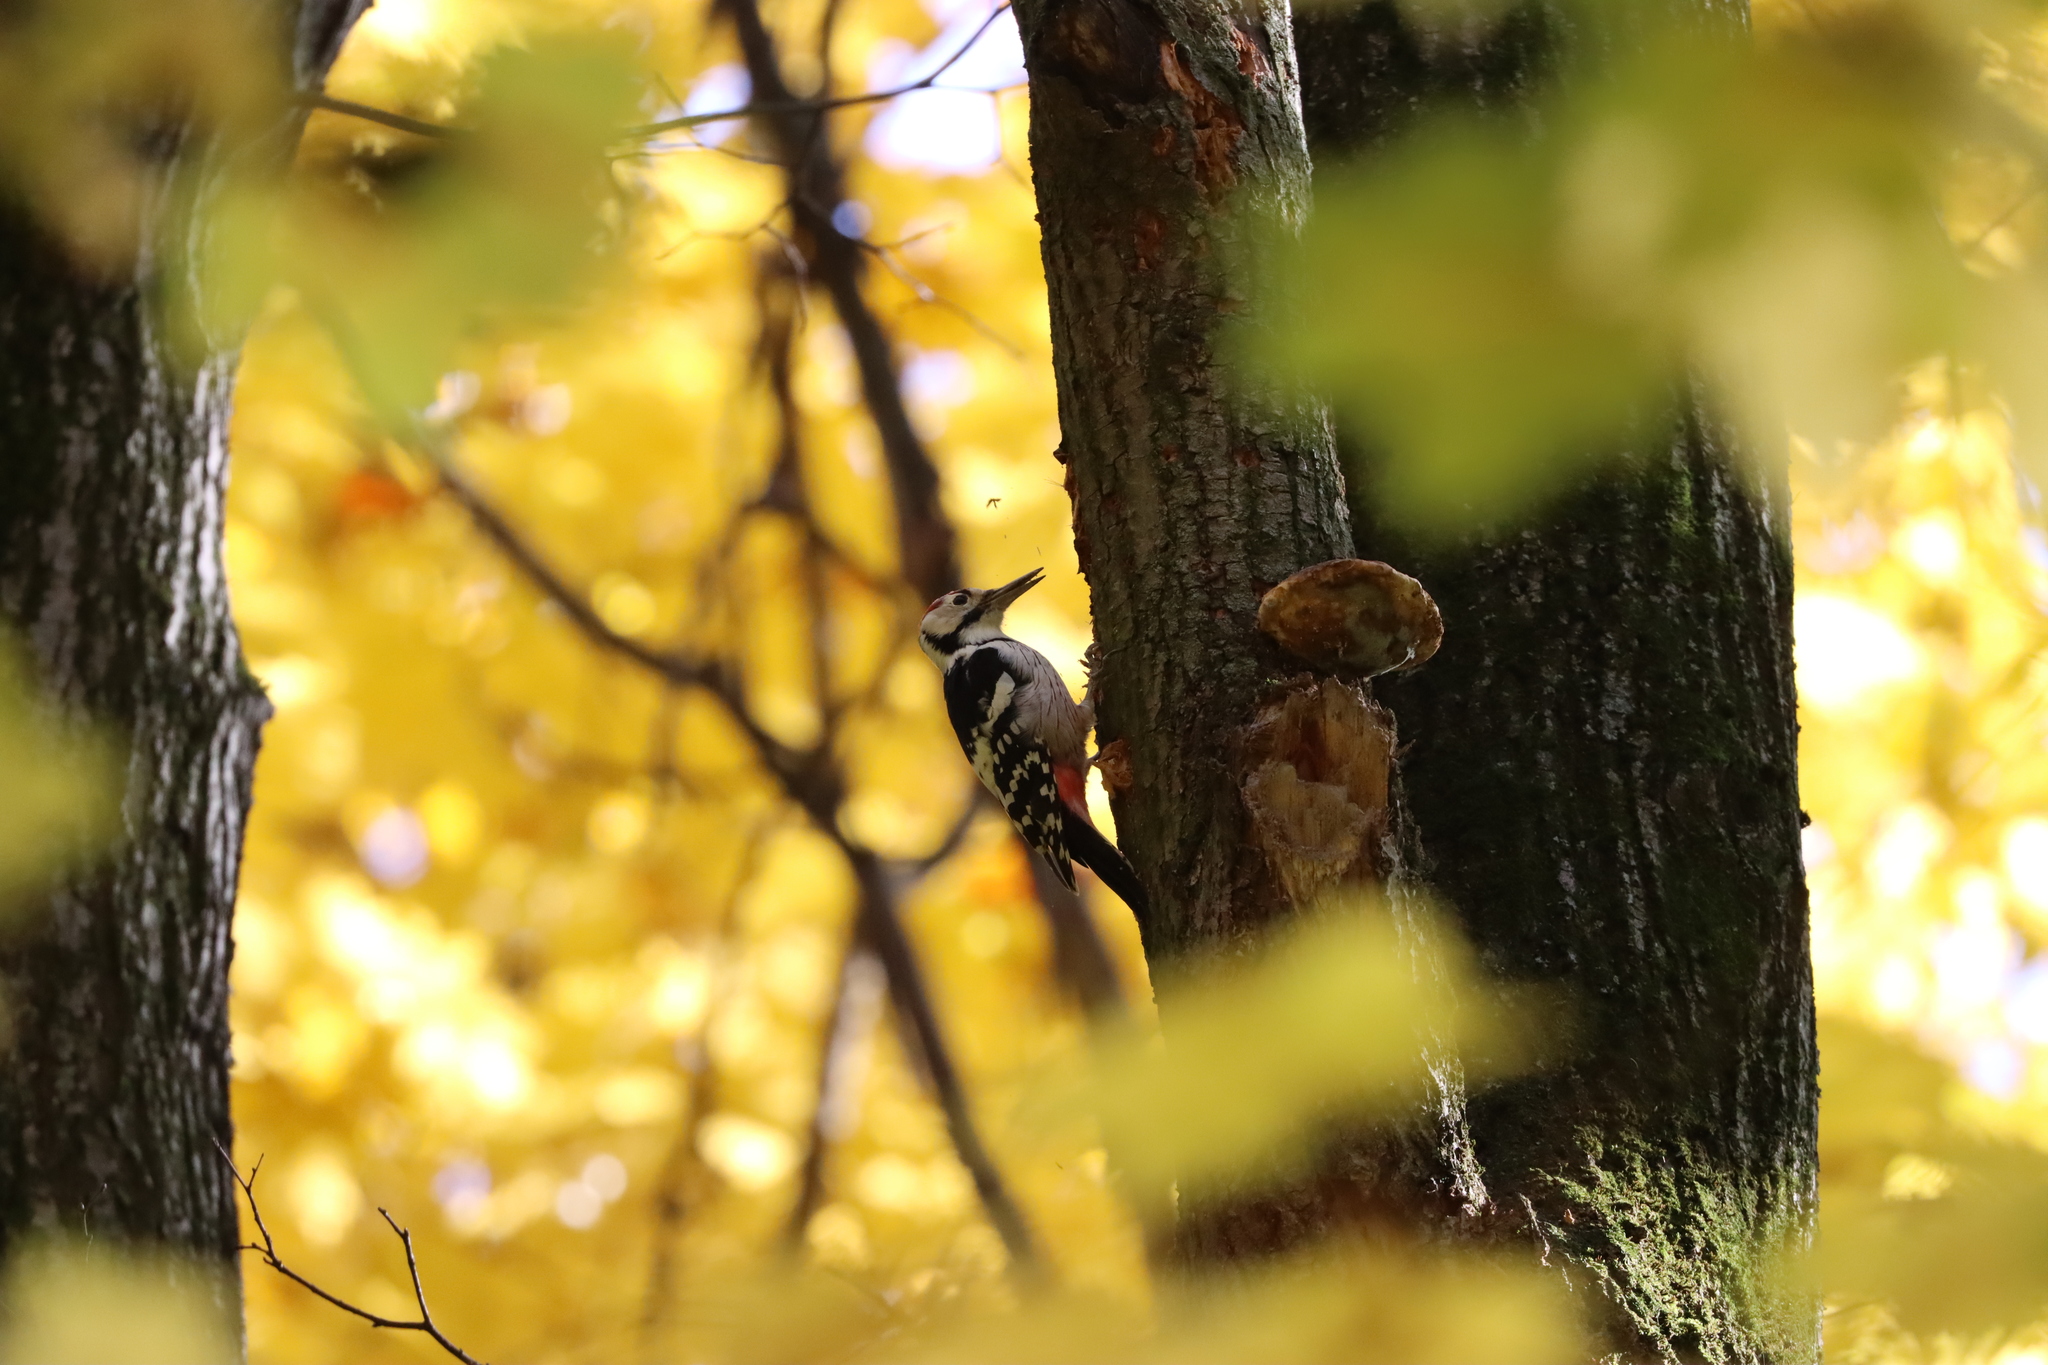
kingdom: Animalia
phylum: Chordata
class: Aves
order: Piciformes
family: Picidae
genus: Dendrocopos
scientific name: Dendrocopos leucotos
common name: White-backed woodpecker
